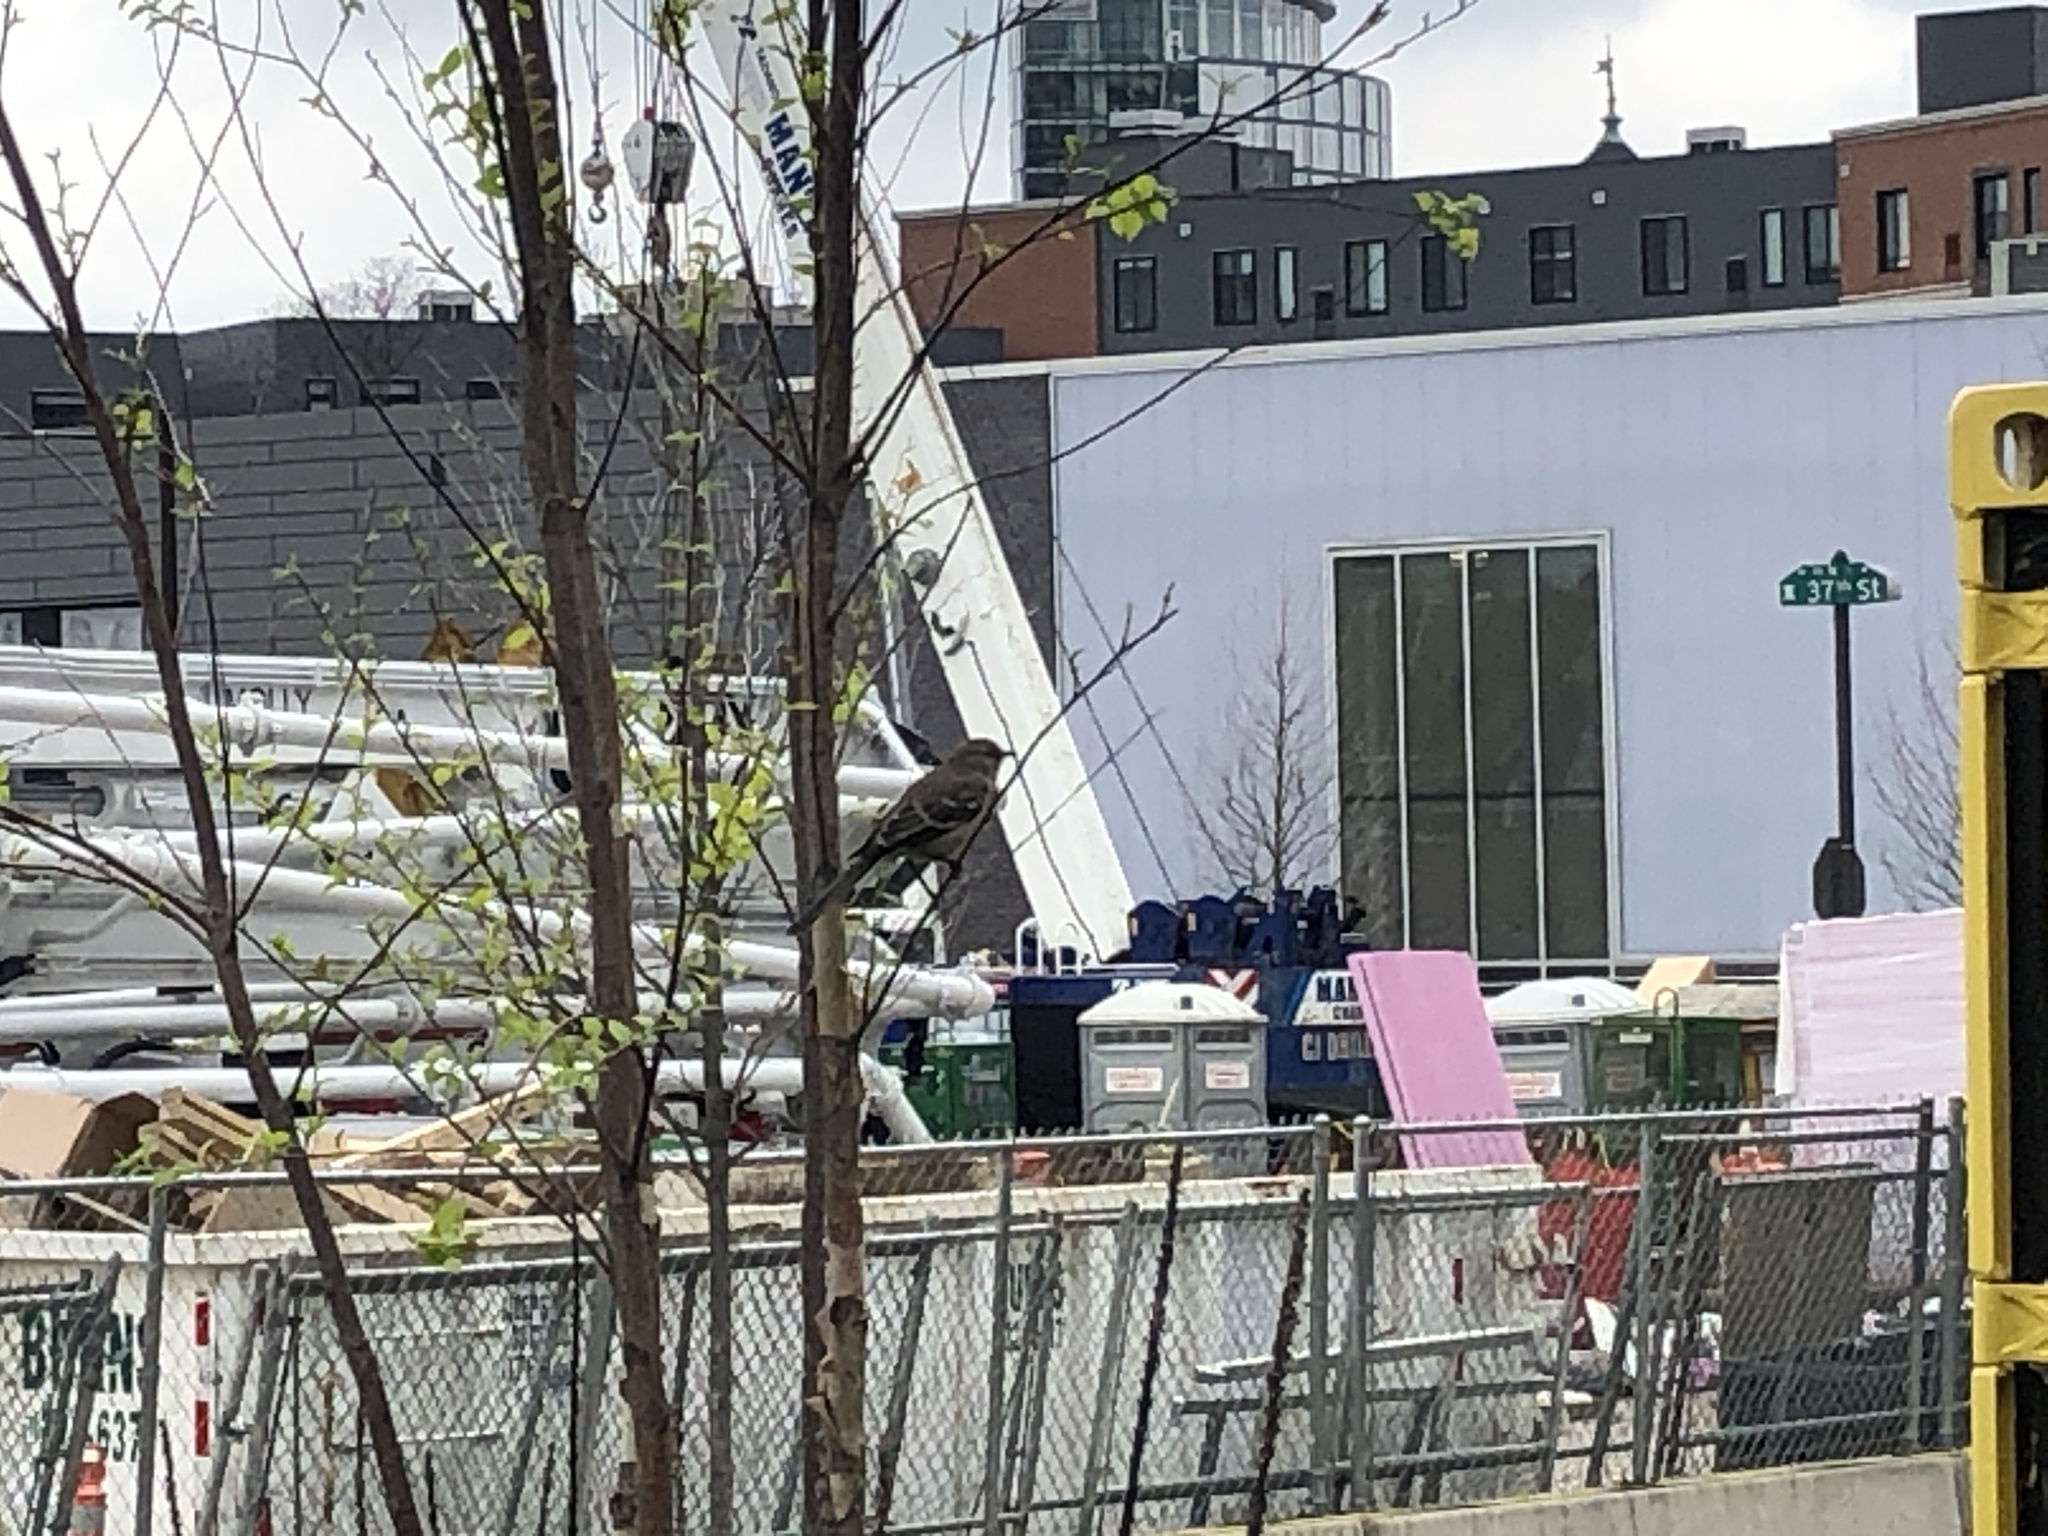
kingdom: Animalia
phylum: Chordata
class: Aves
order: Passeriformes
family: Mimidae
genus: Mimus
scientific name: Mimus polyglottos
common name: Northern mockingbird
